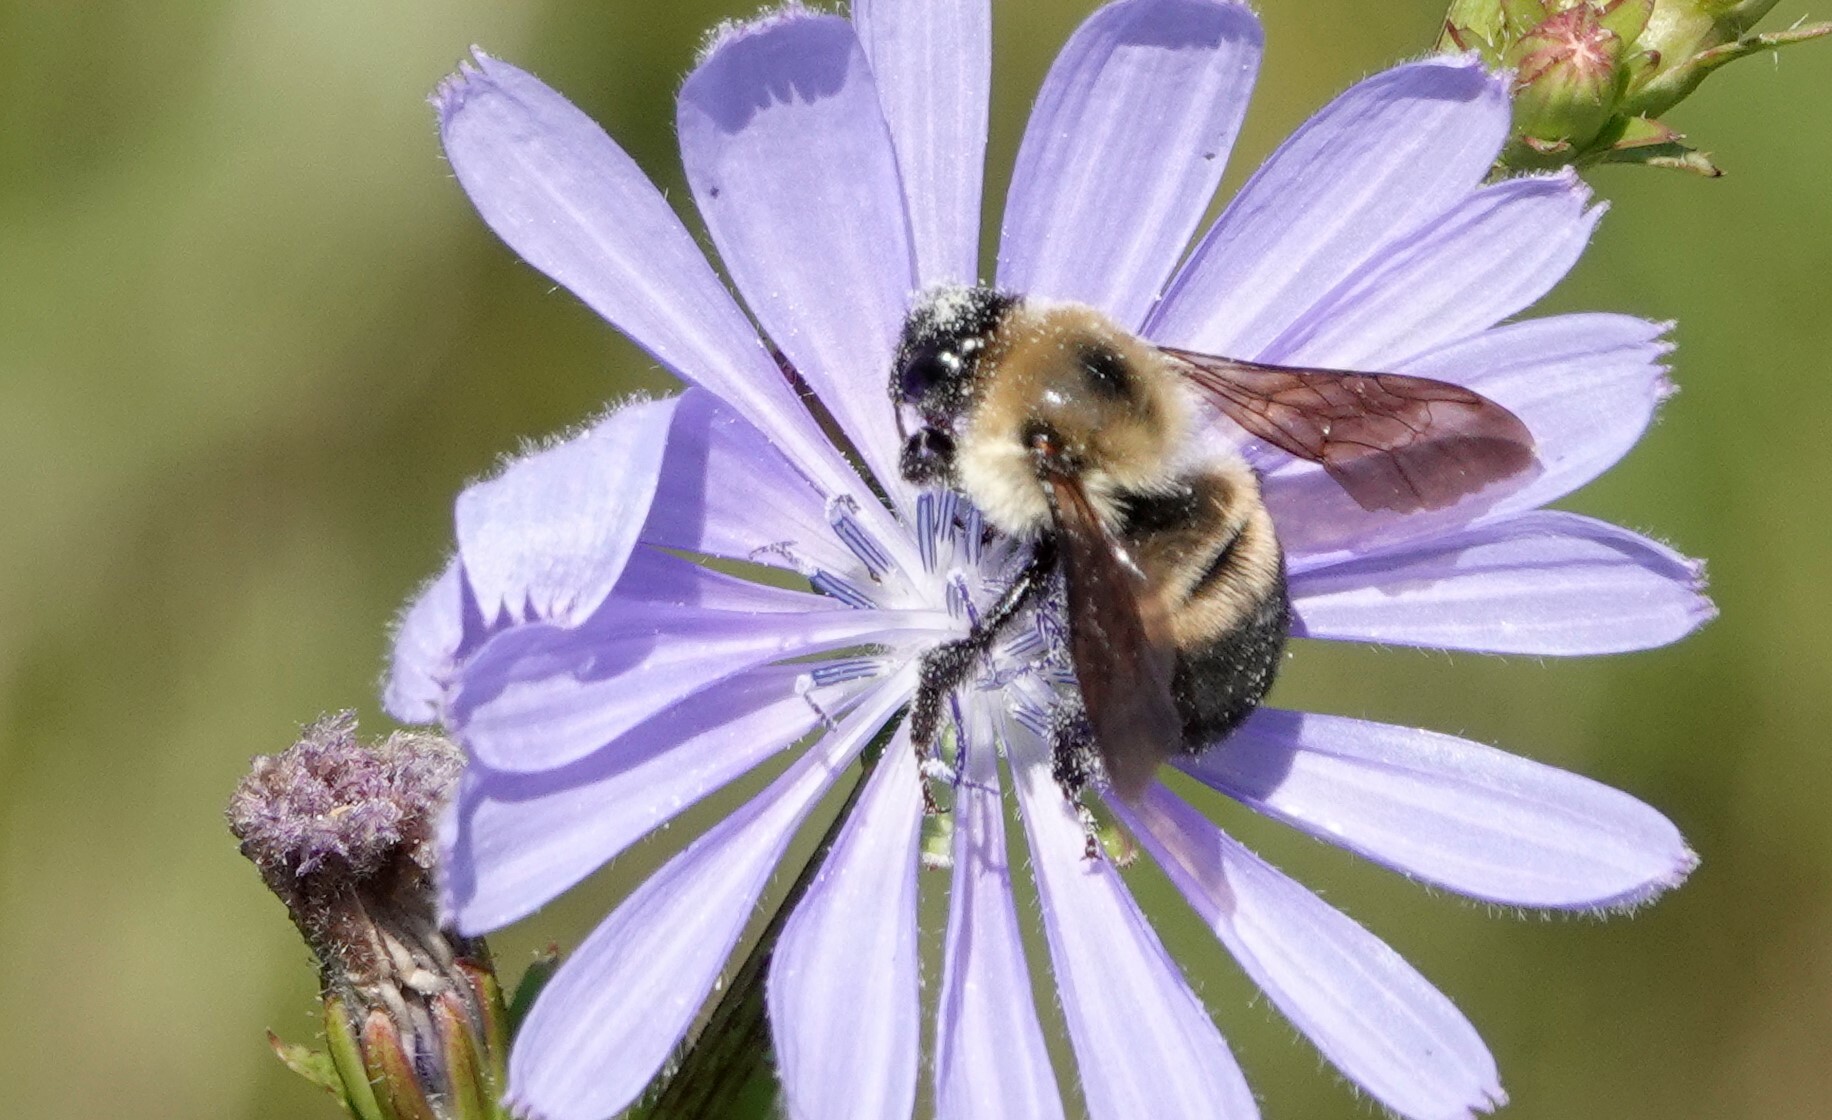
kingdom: Animalia
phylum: Arthropoda
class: Insecta
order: Hymenoptera
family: Apidae
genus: Bombus
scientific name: Bombus griseocollis
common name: Brown-belted bumble bee
